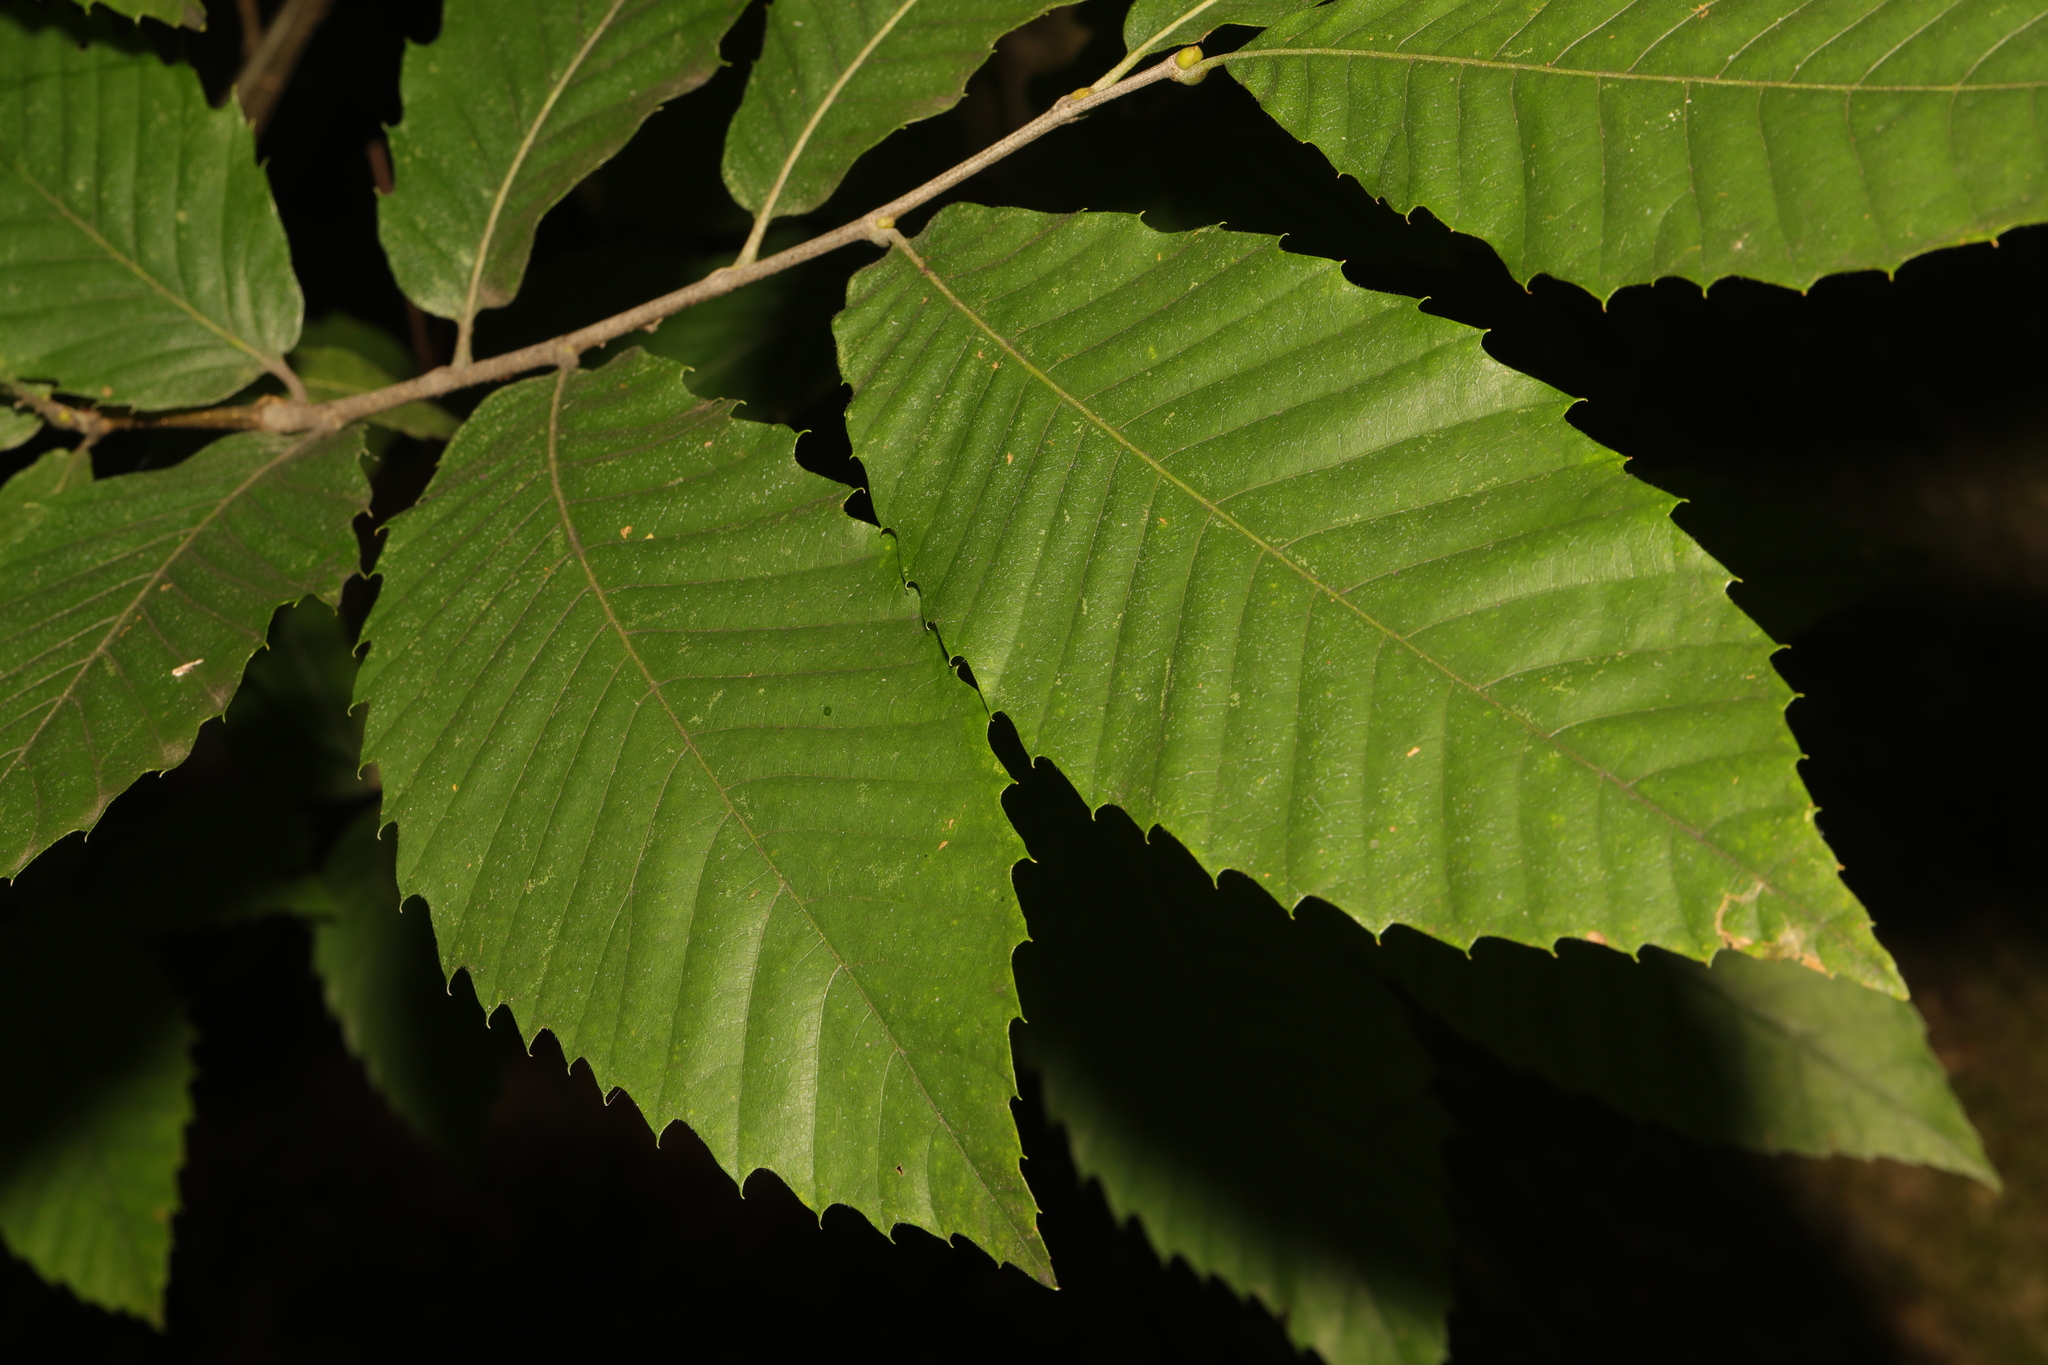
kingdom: Plantae
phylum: Tracheophyta
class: Magnoliopsida
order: Fagales
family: Fagaceae
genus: Castanea
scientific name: Castanea sativa
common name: Sweet chestnut
